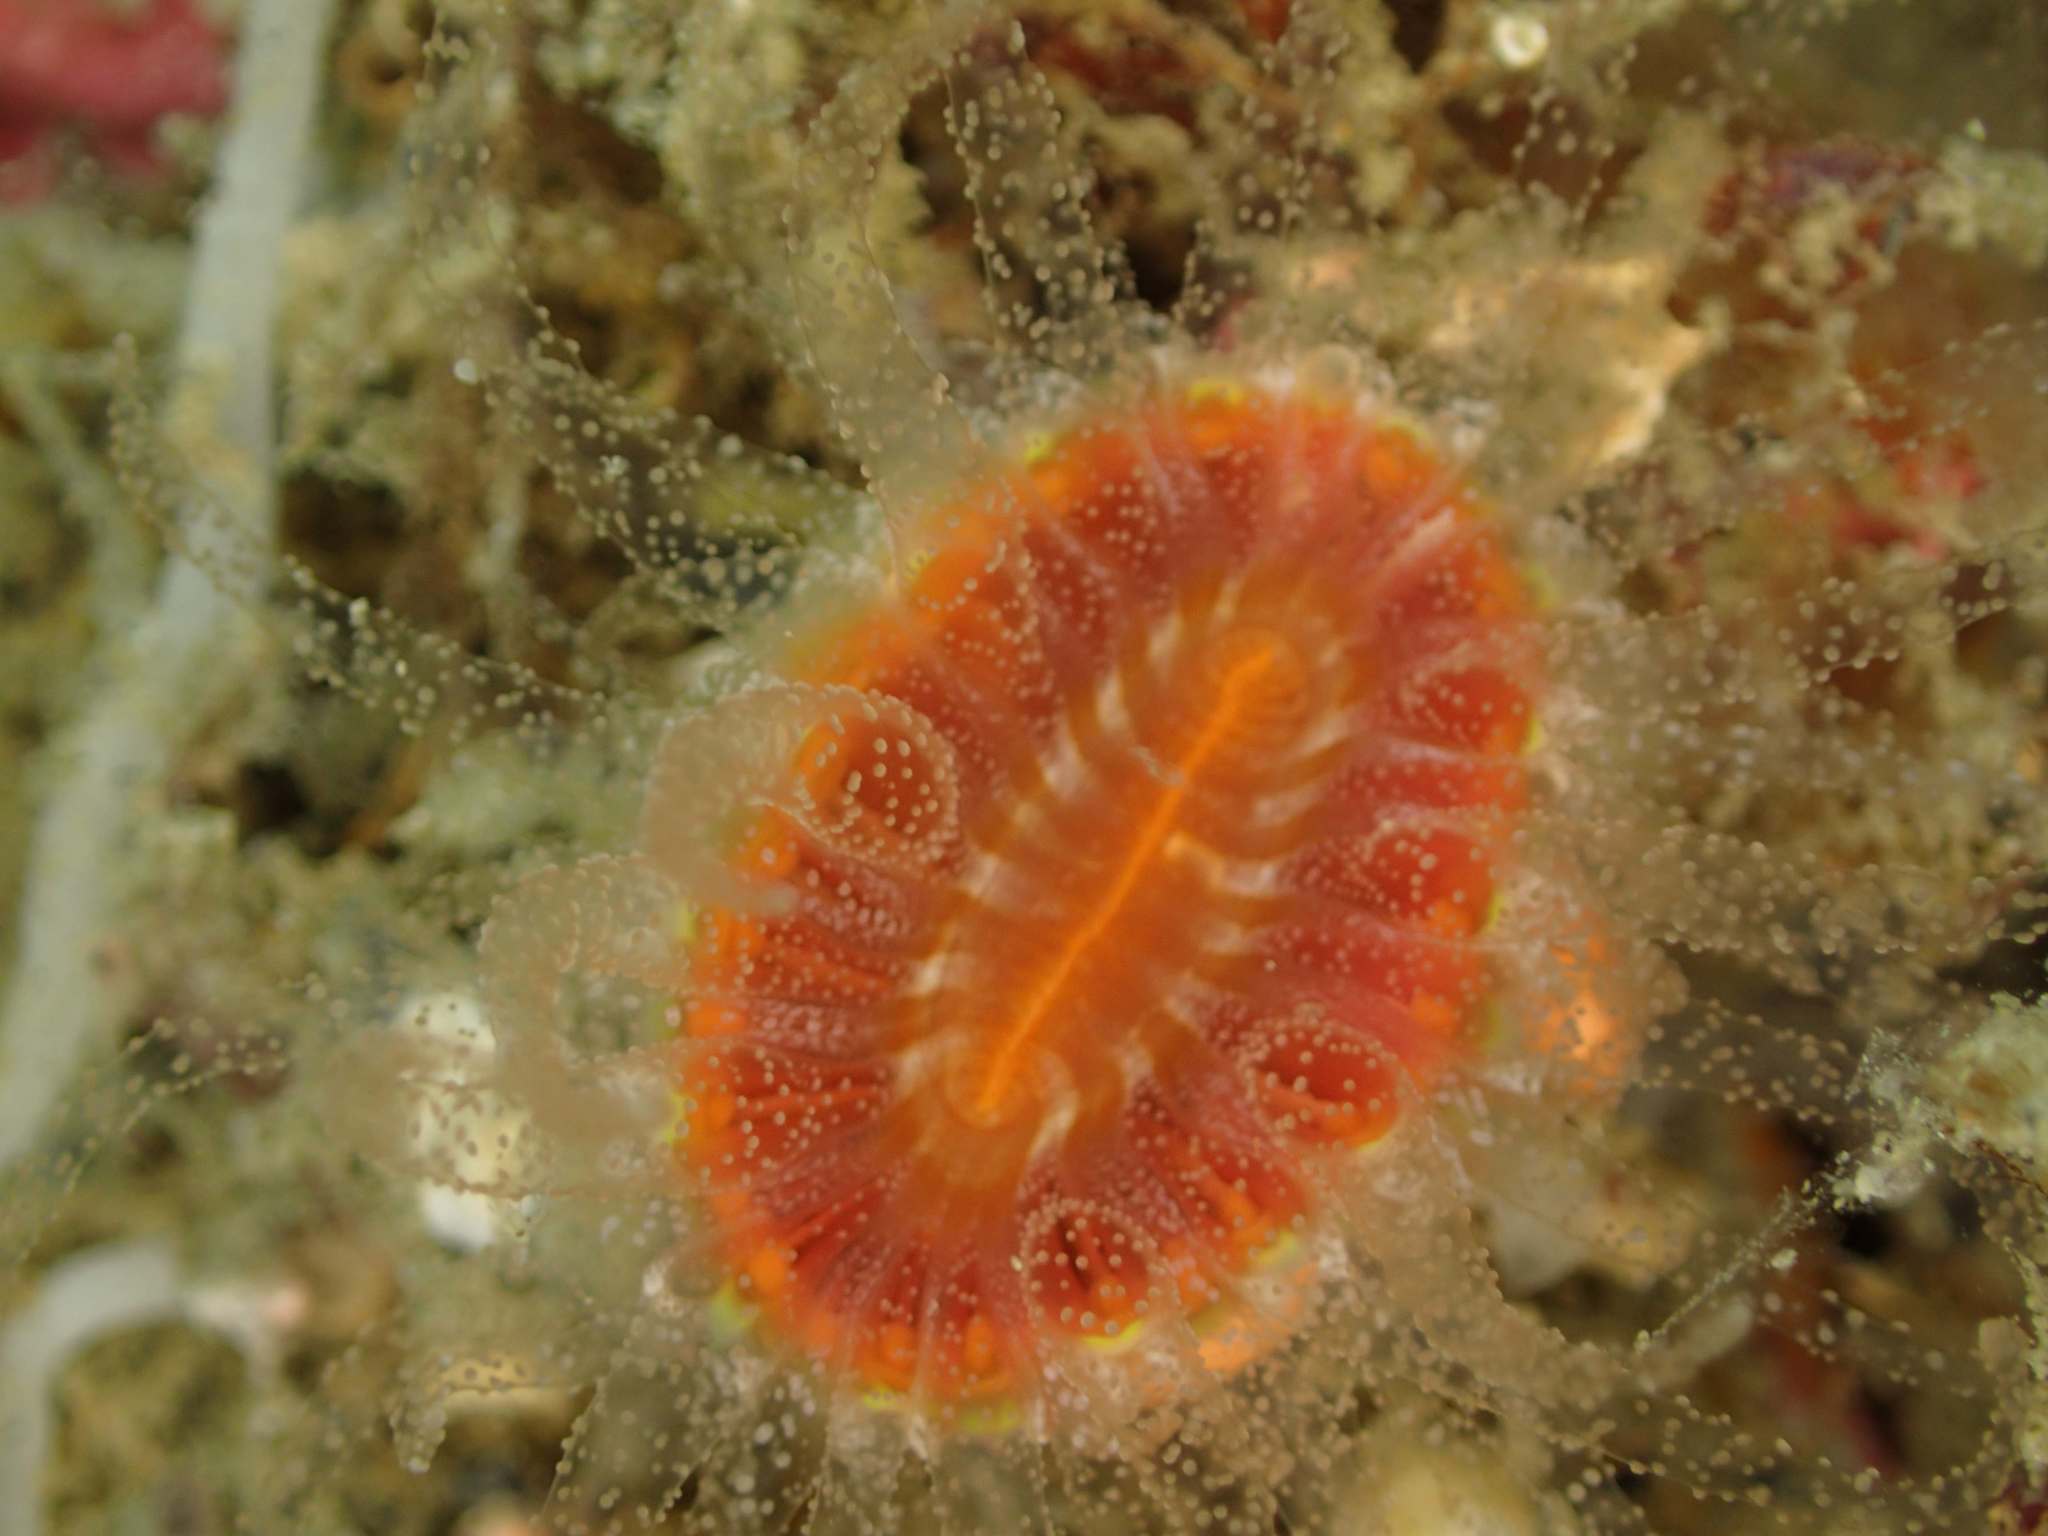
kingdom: Animalia
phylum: Cnidaria
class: Anthozoa
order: Scleractinia
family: Flabellidae
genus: Monomyces
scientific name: Monomyces rubrum
